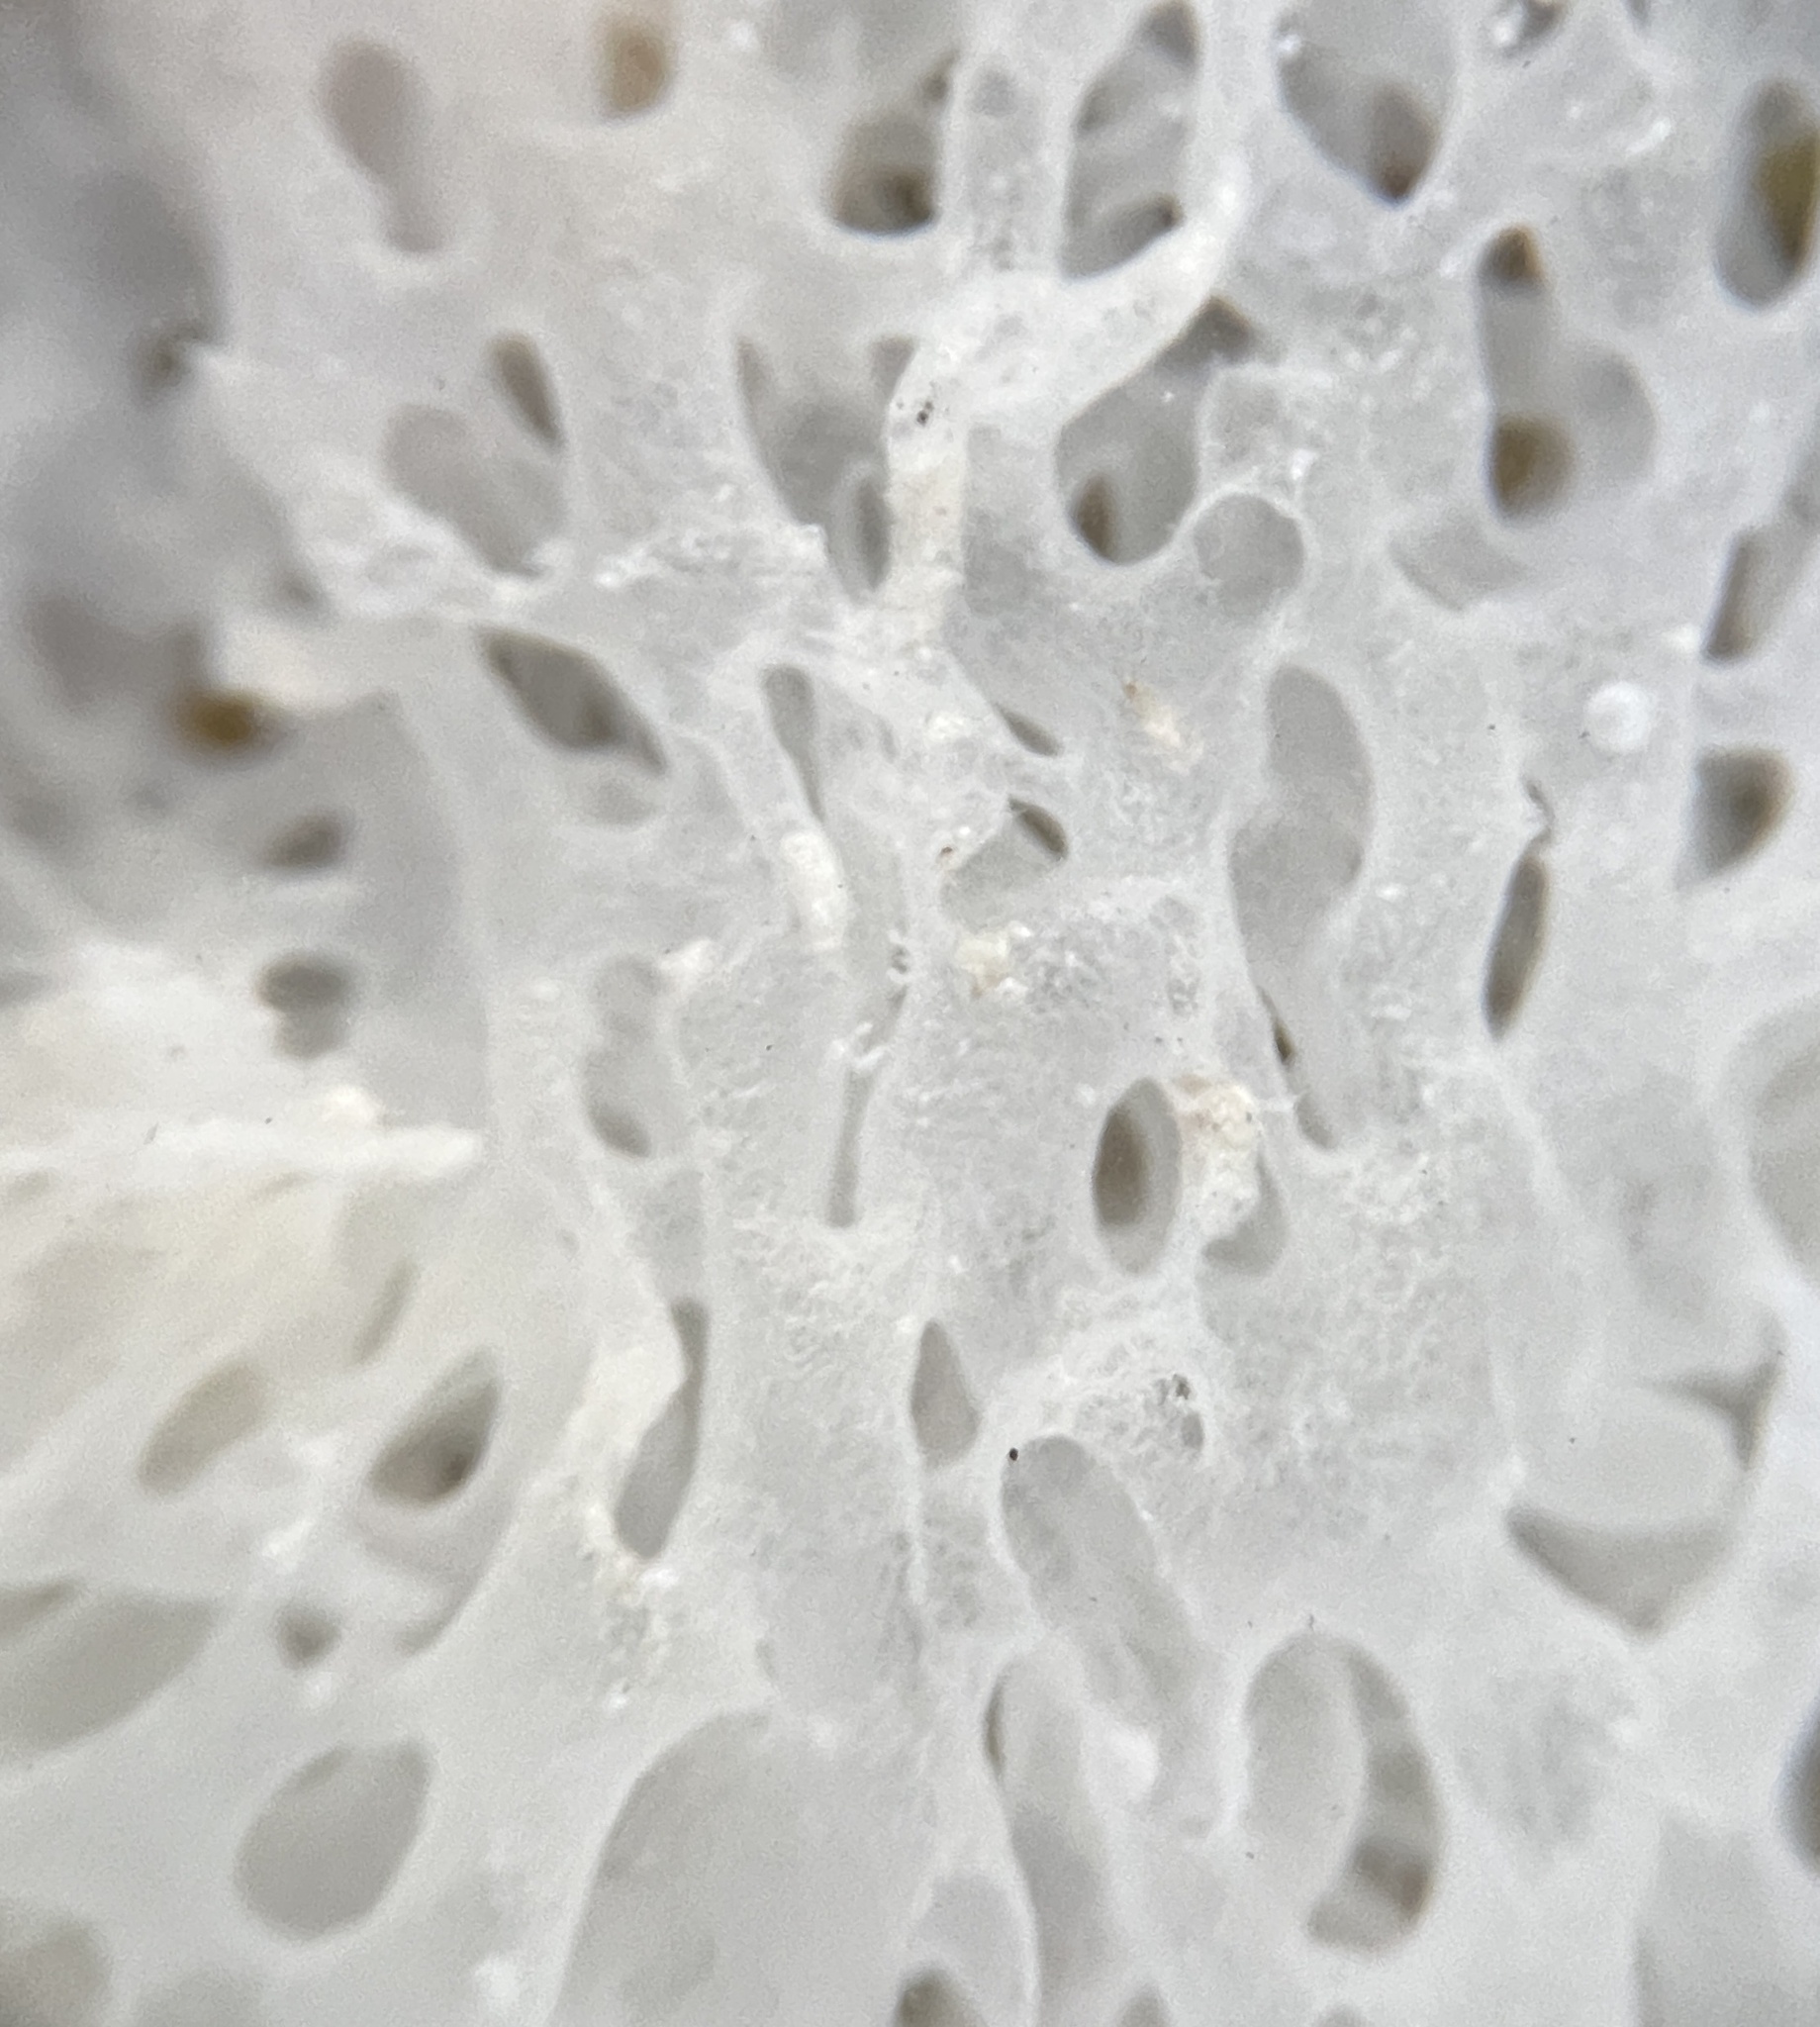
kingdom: Animalia
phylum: Porifera
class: Calcarea
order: Clathrinida
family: Clathrinidae
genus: Clathrina
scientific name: Clathrina coriacea
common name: White clathrina
